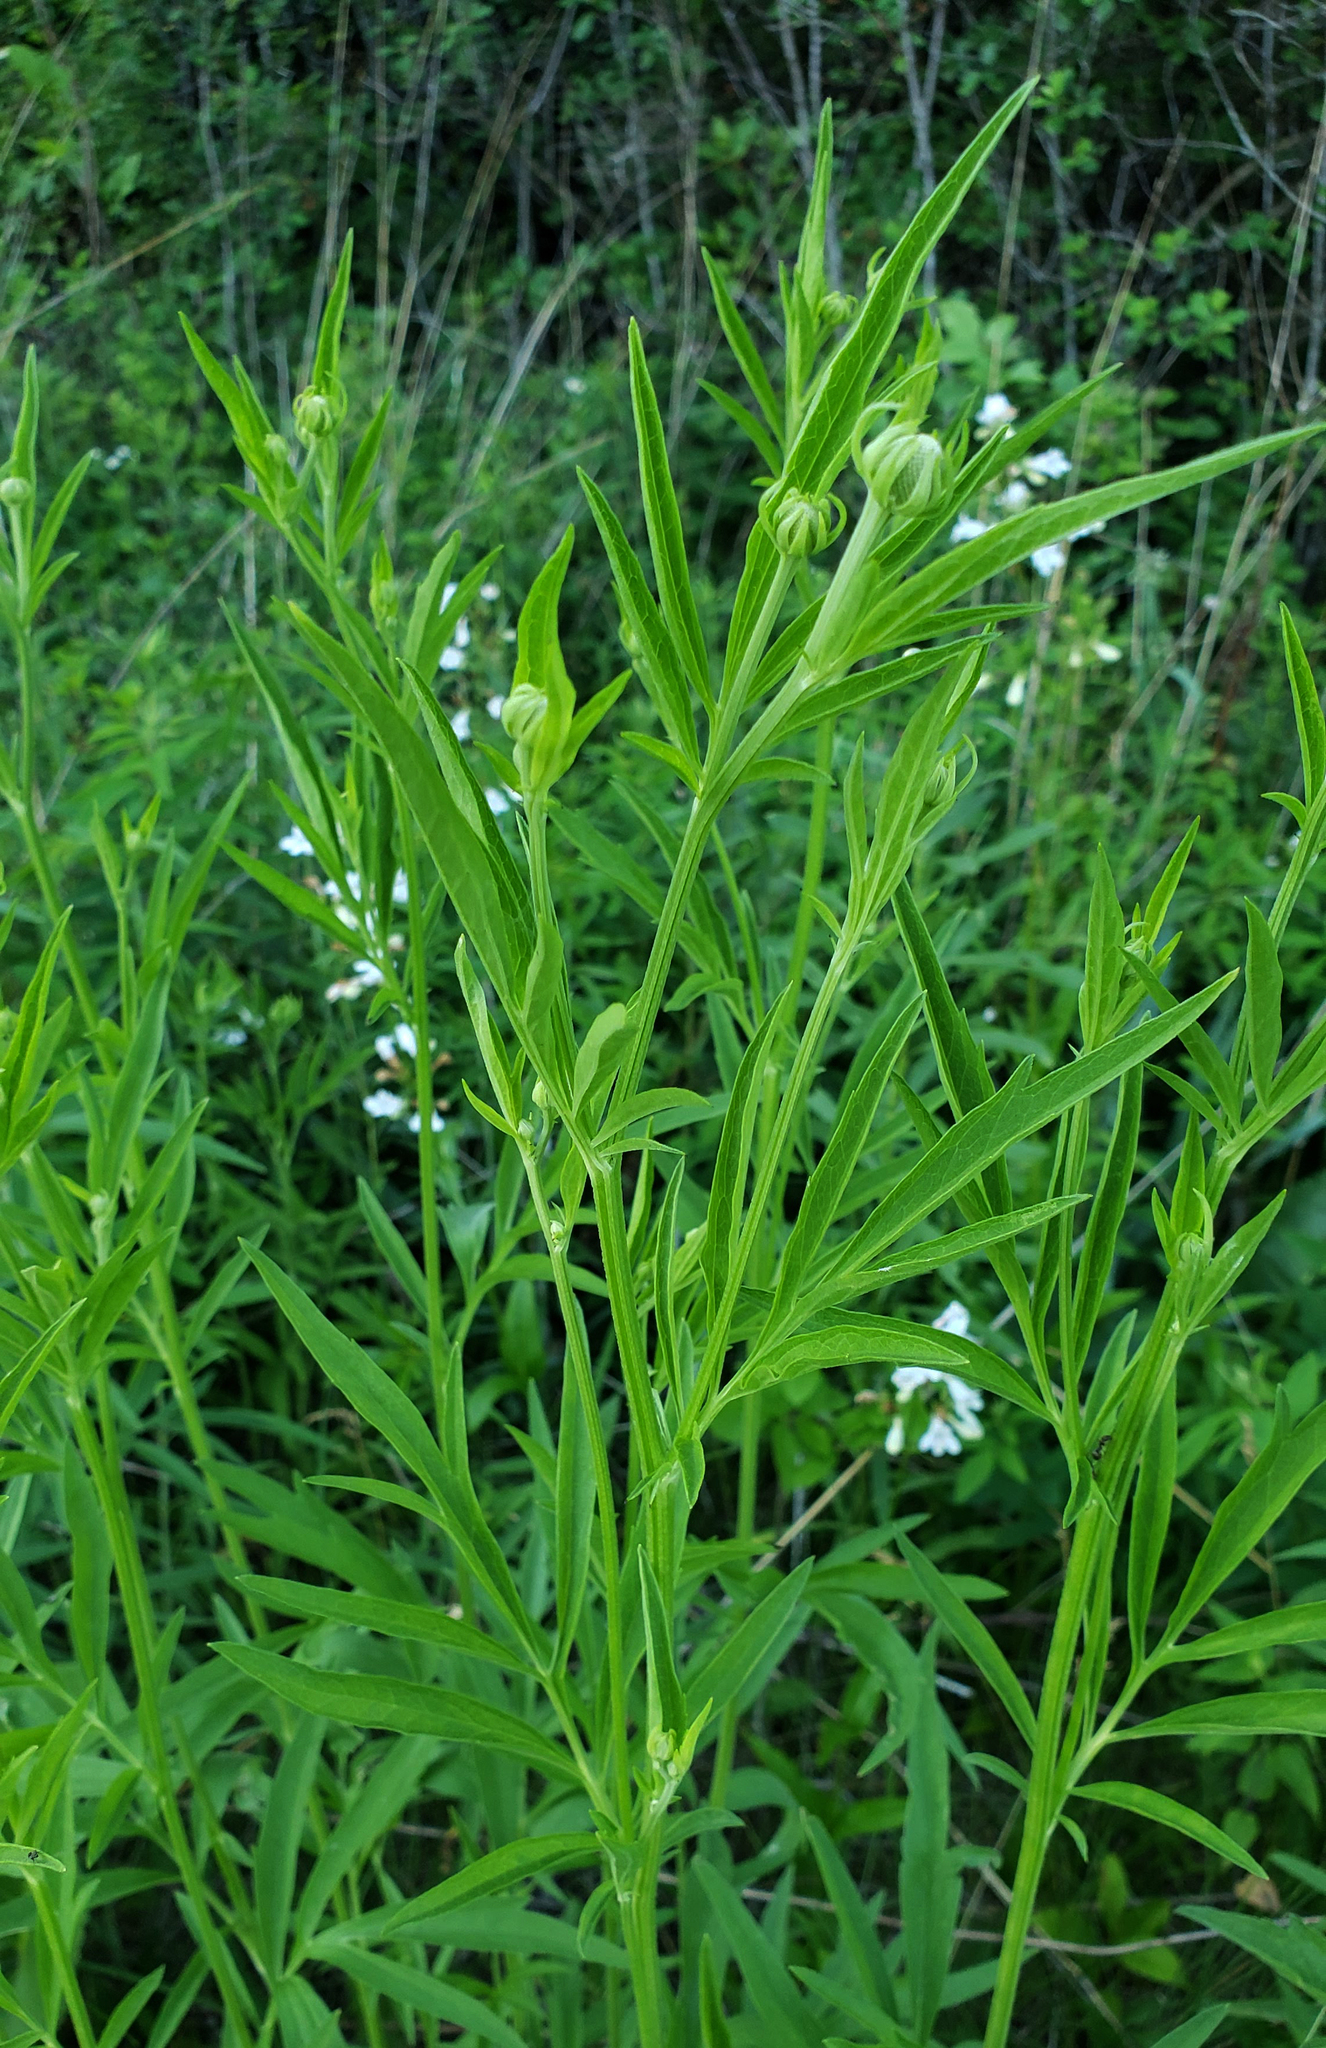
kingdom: Plantae
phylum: Tracheophyta
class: Magnoliopsida
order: Asterales
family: Asteraceae
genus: Ratibida
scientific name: Ratibida pinnata
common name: Drooping prairie-coneflower
